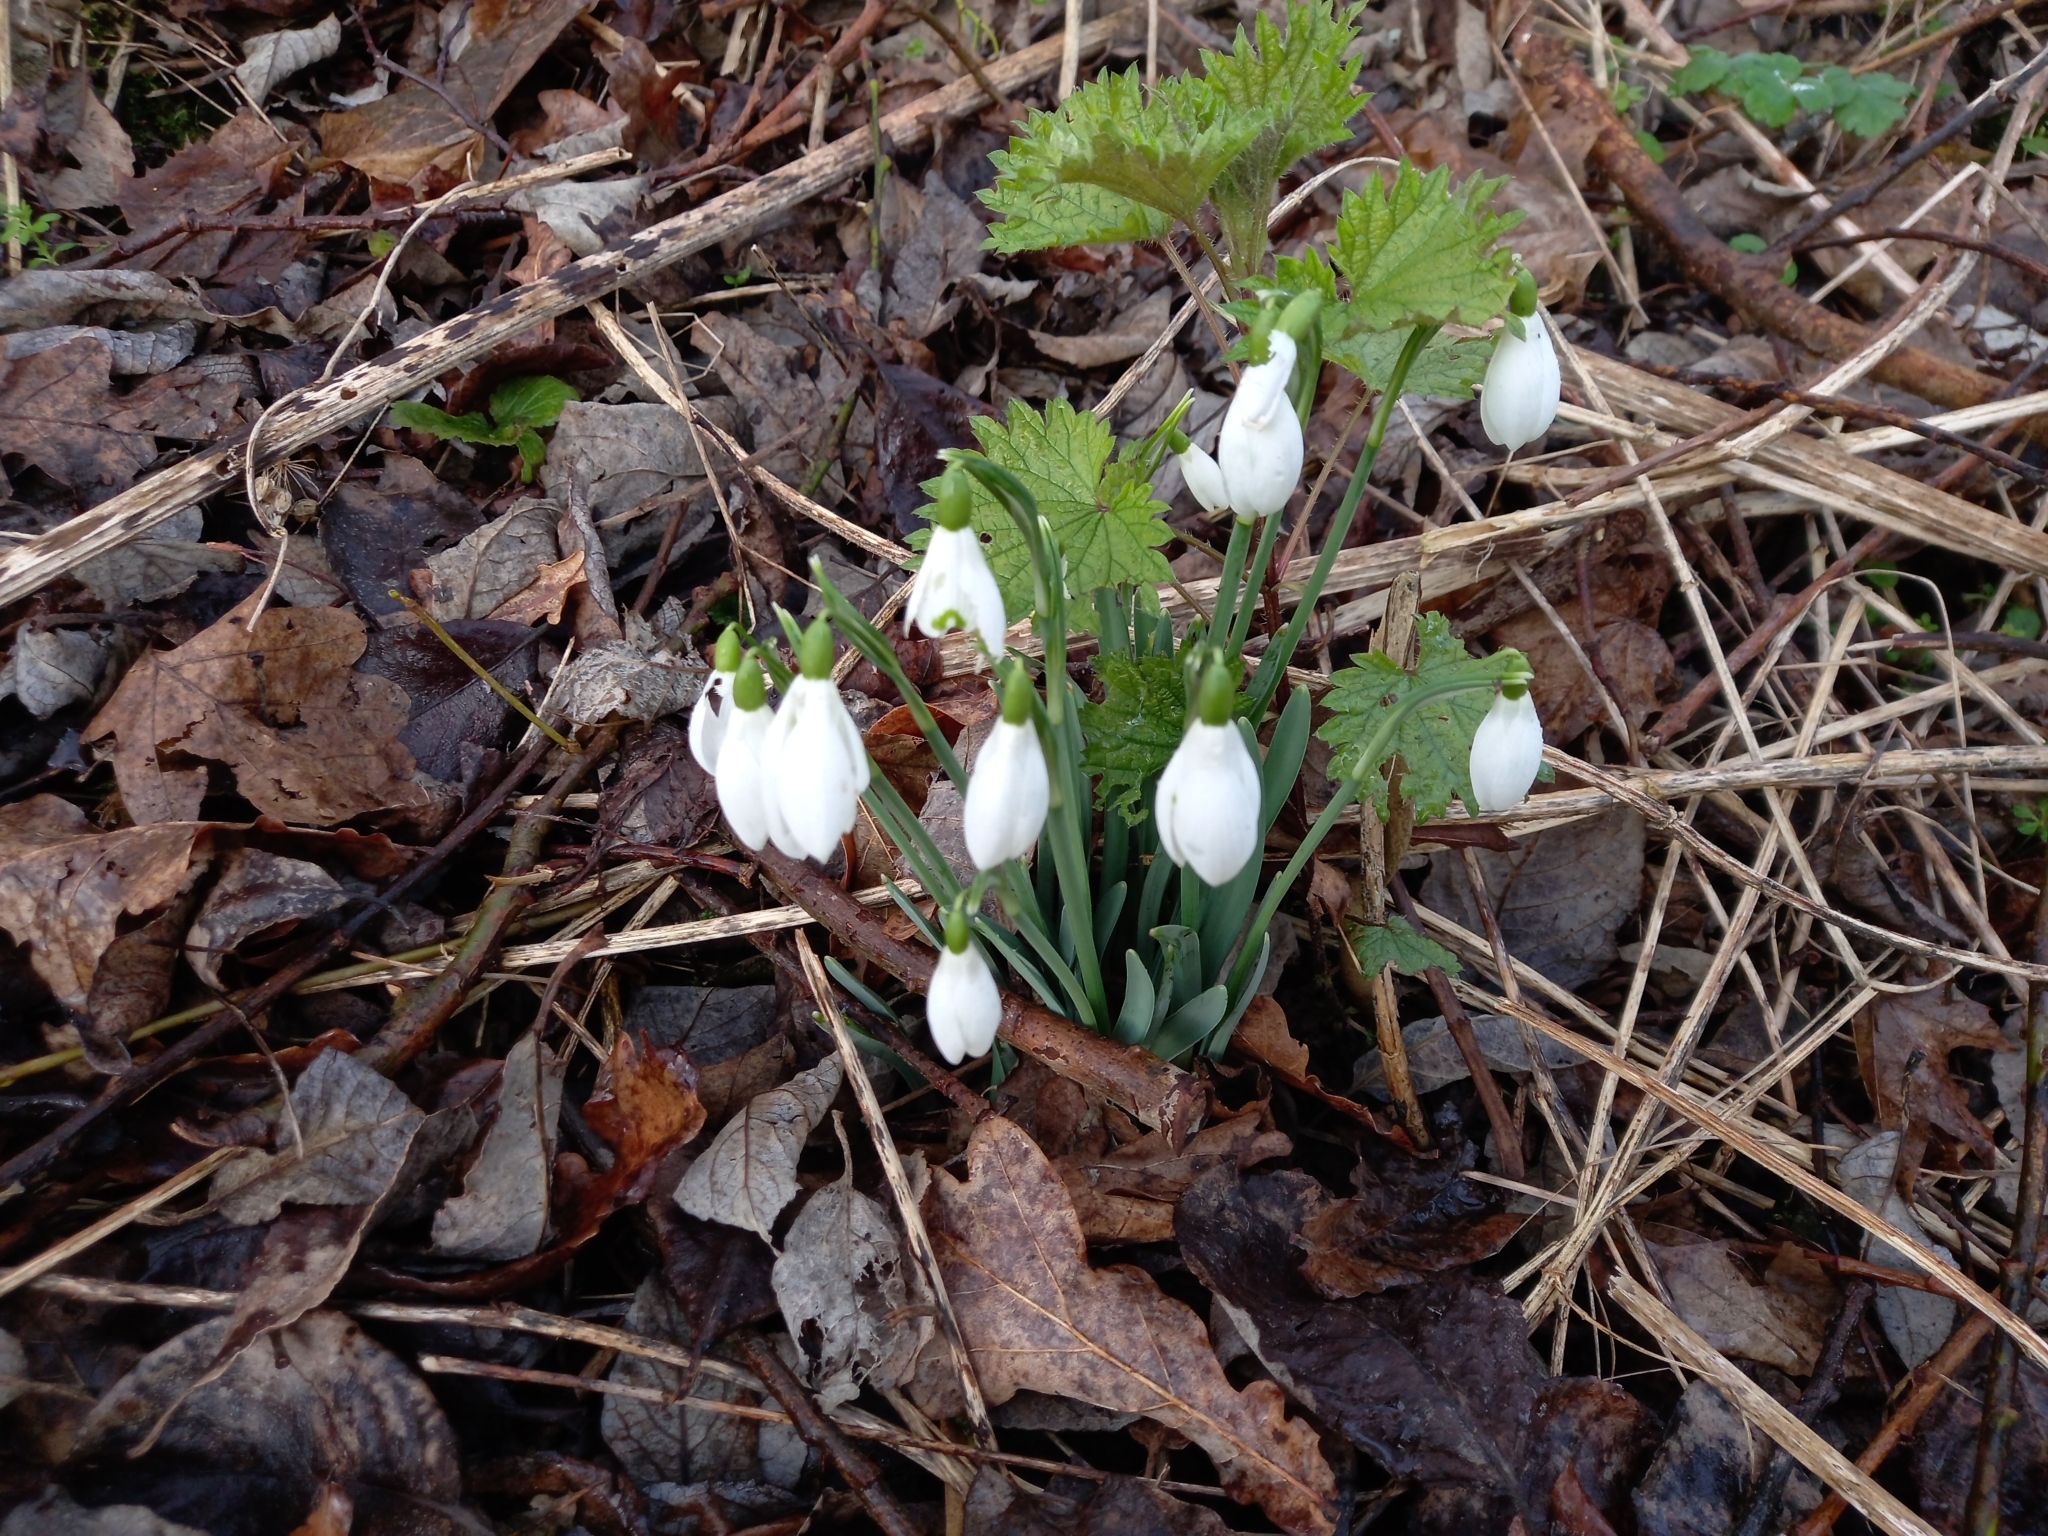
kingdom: Plantae
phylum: Tracheophyta
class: Liliopsida
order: Asparagales
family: Amaryllidaceae
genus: Galanthus
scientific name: Galanthus nivalis
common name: Snowdrop
